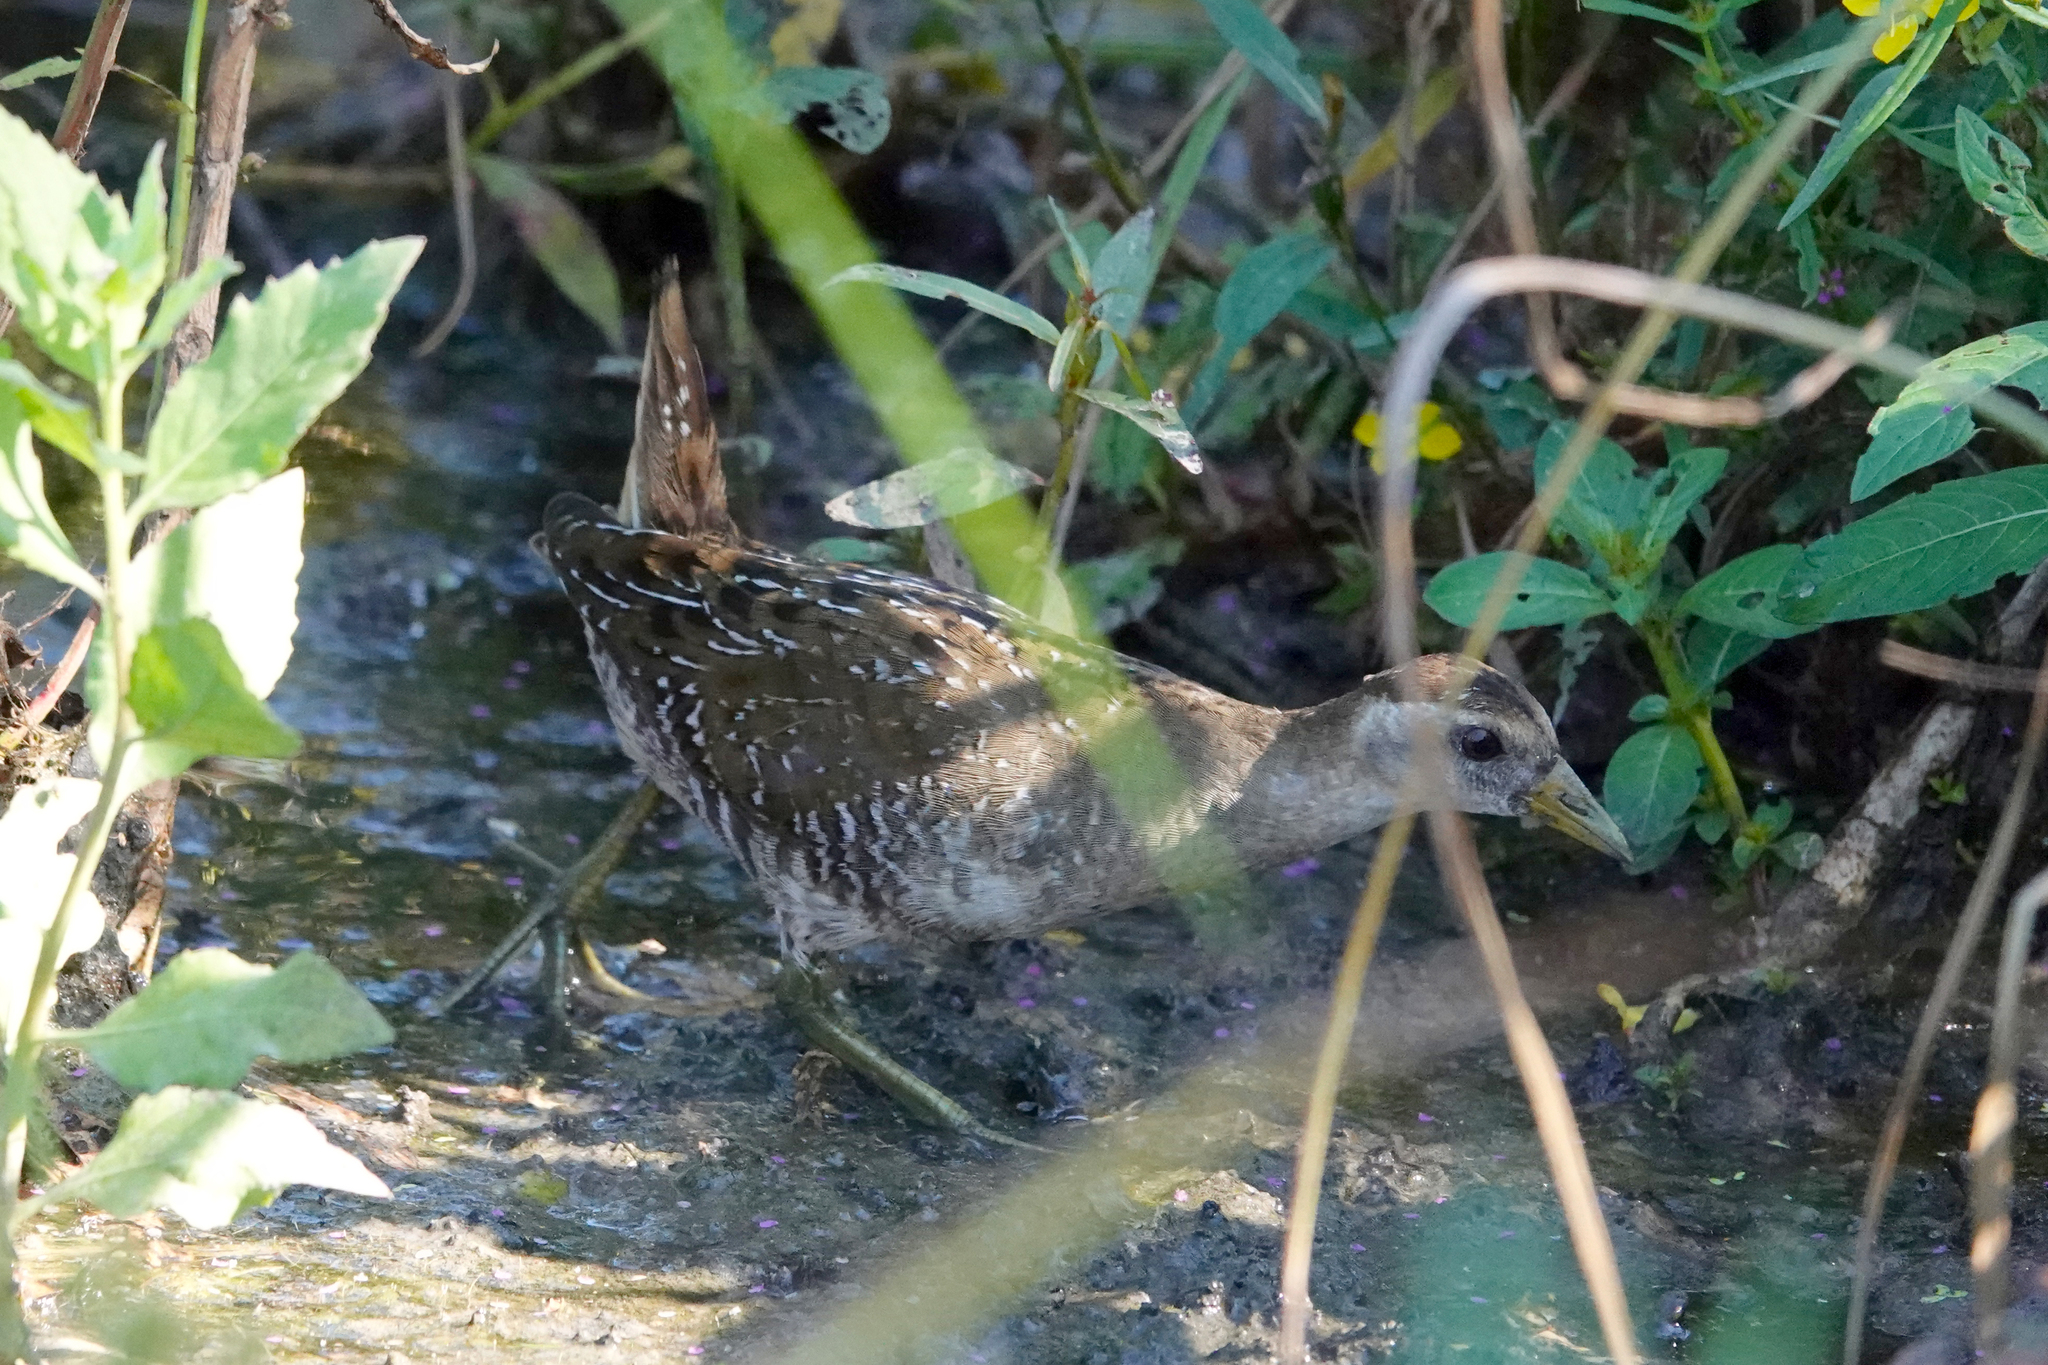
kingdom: Animalia
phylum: Chordata
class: Aves
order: Gruiformes
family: Rallidae
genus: Porzana
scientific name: Porzana carolina
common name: Sora
